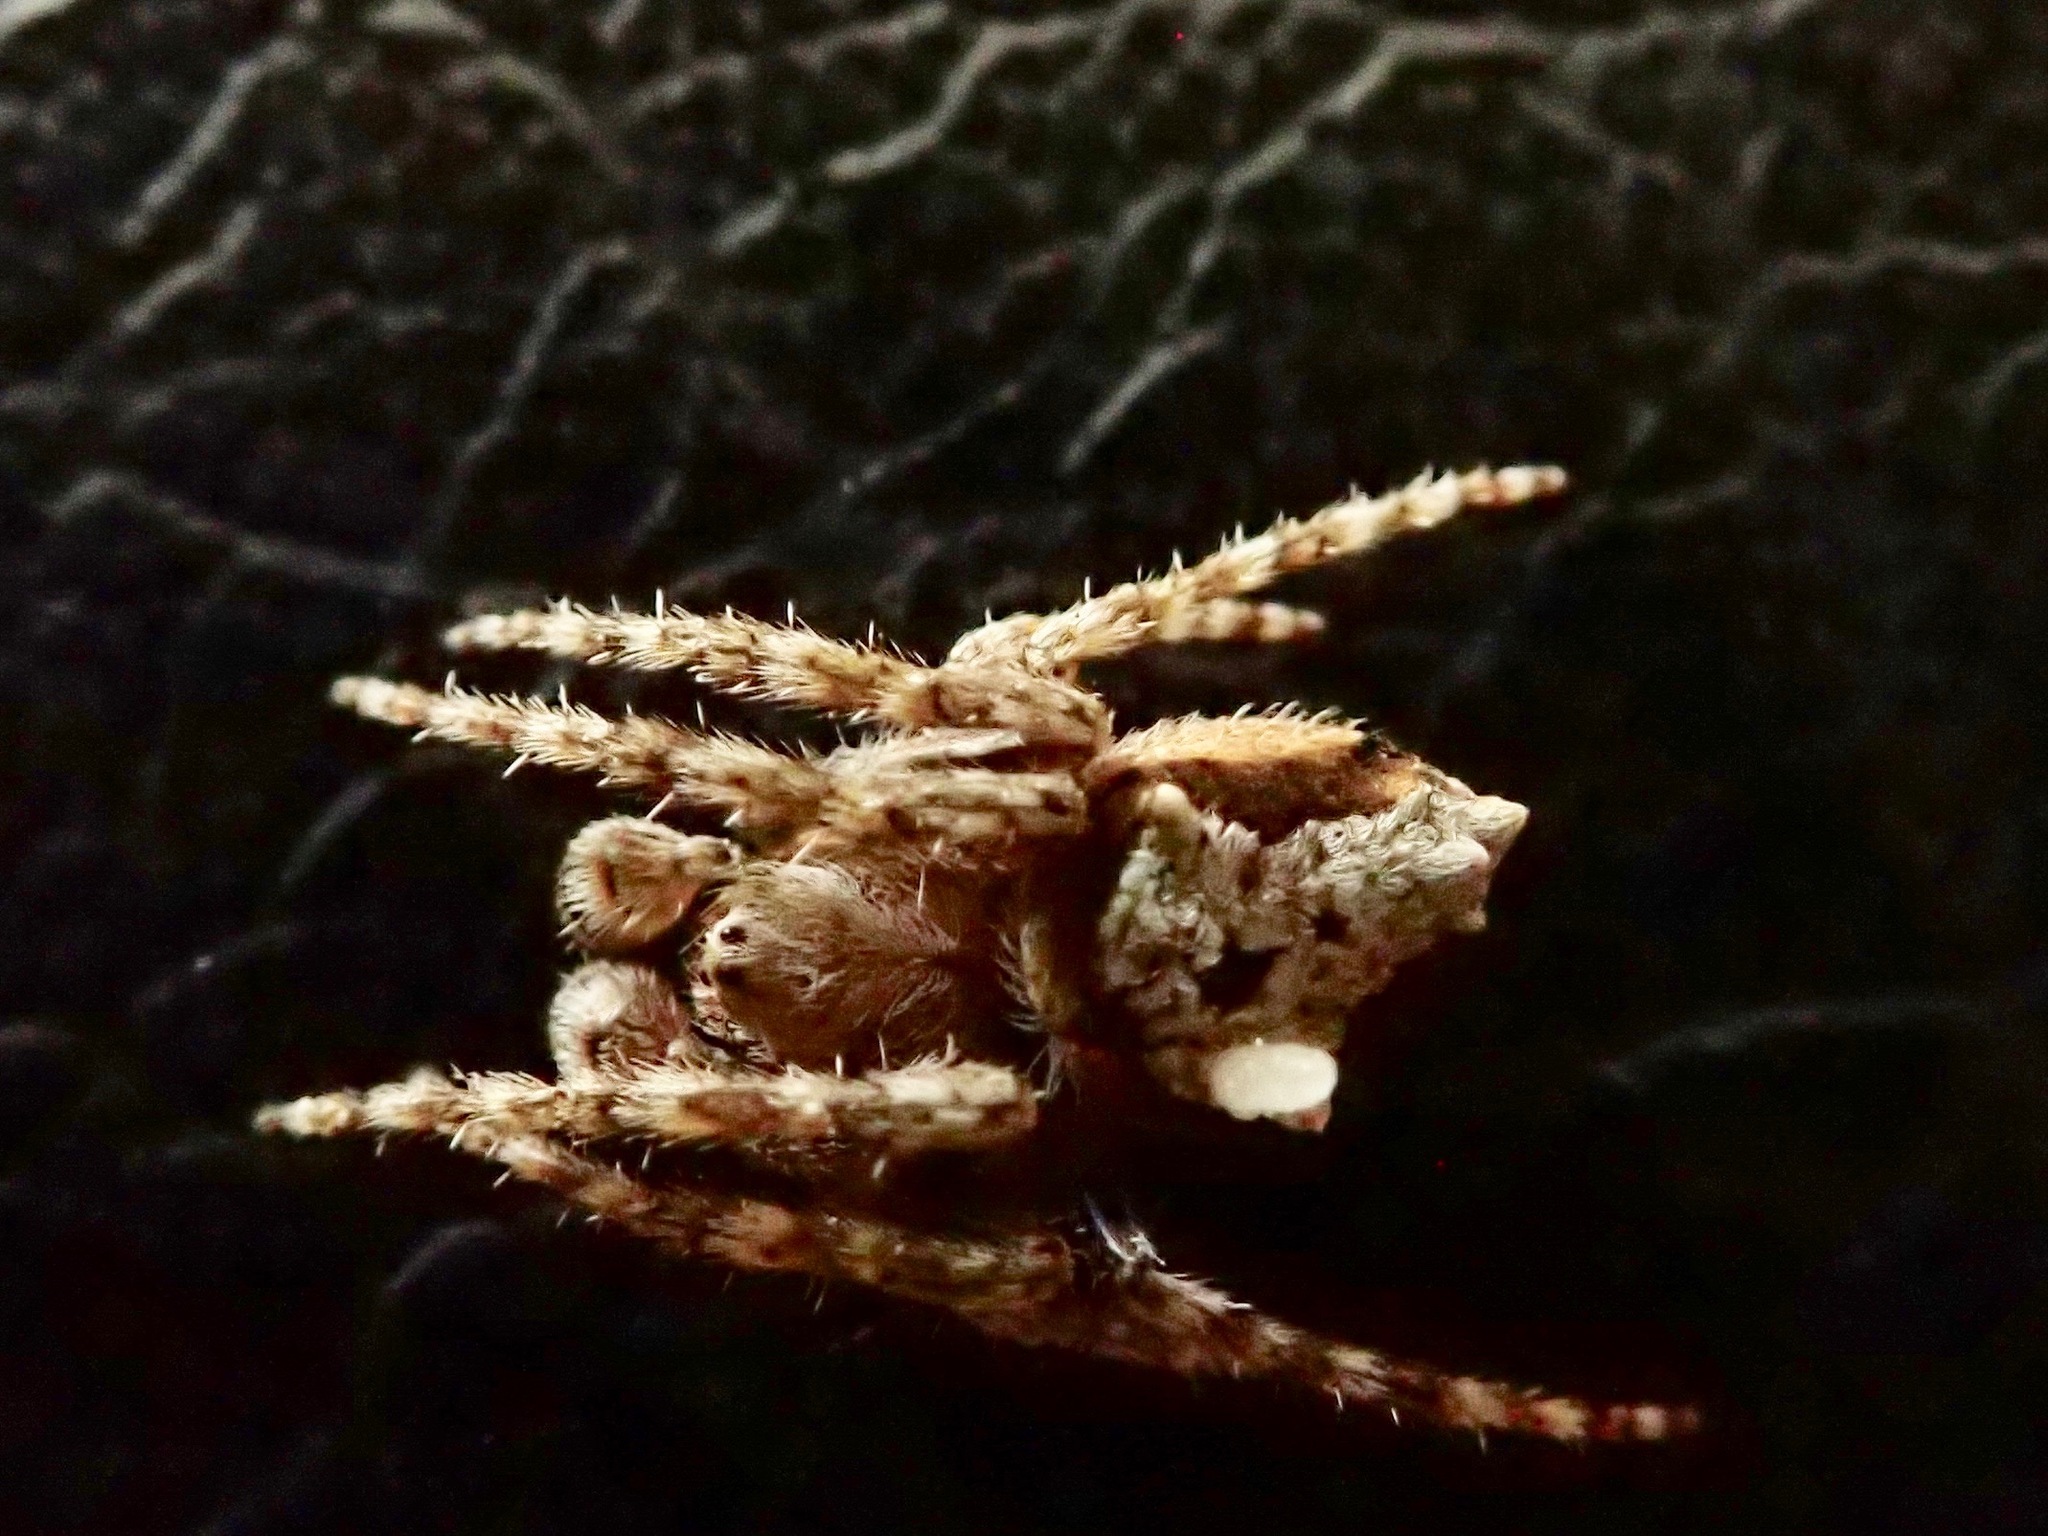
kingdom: Animalia
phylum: Arthropoda
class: Arachnida
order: Araneae
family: Araneidae
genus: Eriophora
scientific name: Eriophora pustulosa
